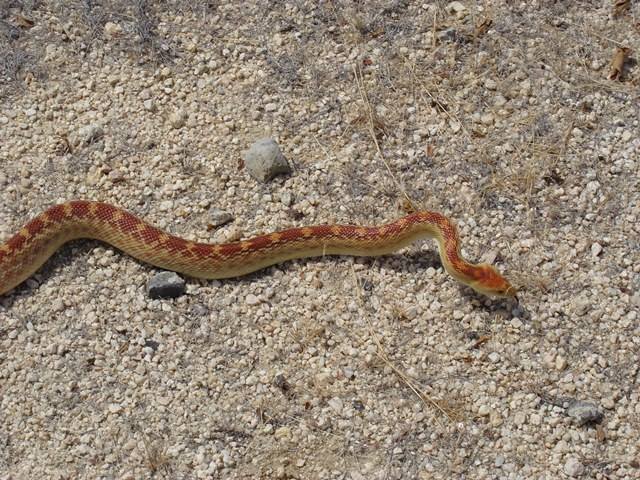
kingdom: Animalia
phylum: Chordata
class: Squamata
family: Colubridae
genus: Pituophis
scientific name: Pituophis vertebralis
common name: Cape gopher snake
